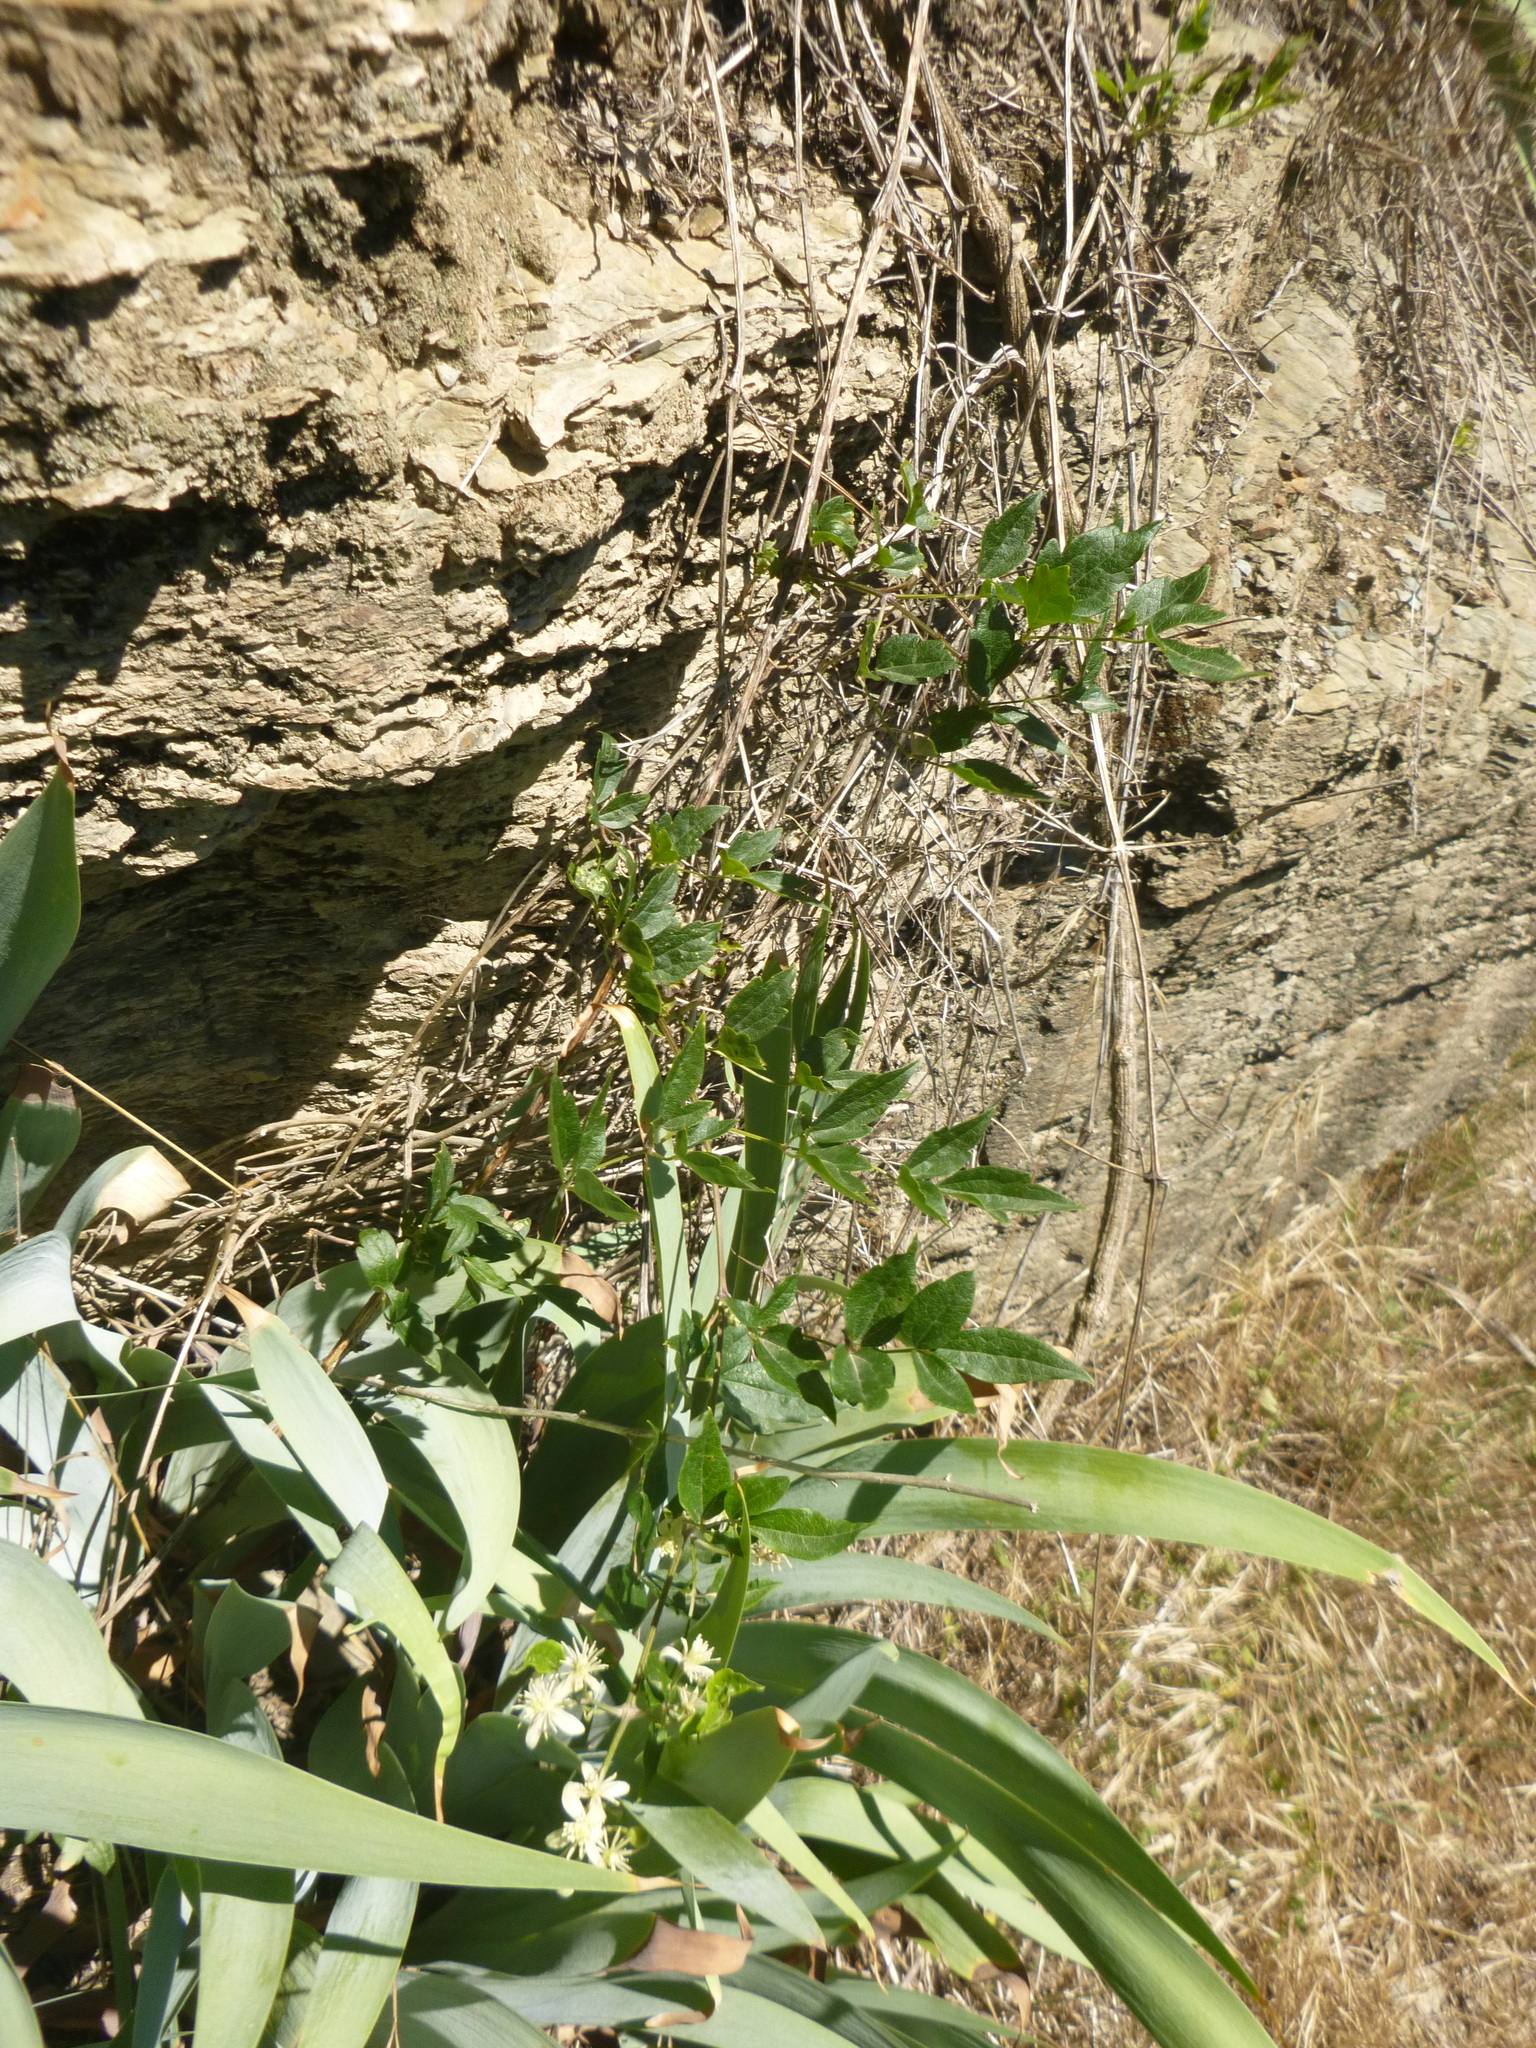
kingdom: Plantae
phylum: Tracheophyta
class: Magnoliopsida
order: Ranunculales
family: Ranunculaceae
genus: Clematis
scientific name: Clematis vitalba
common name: Evergreen clematis
